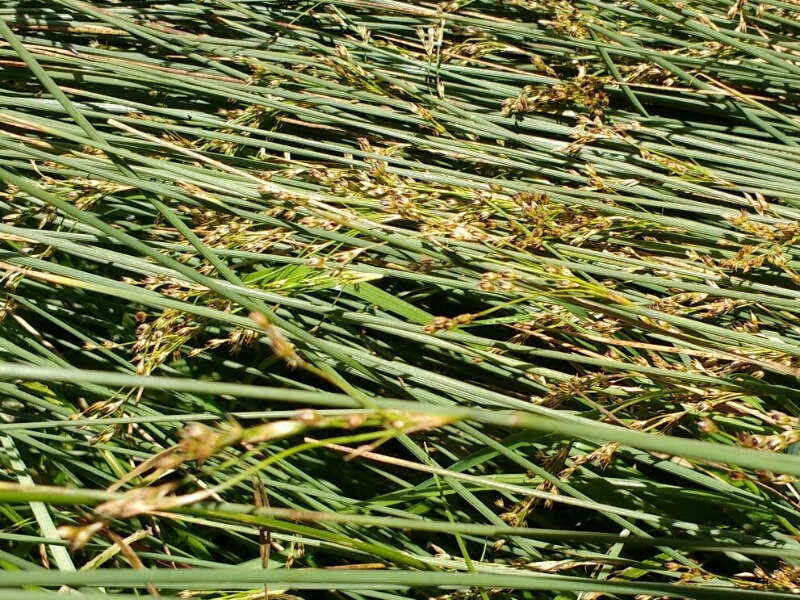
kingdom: Plantae
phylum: Tracheophyta
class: Liliopsida
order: Poales
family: Juncaceae
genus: Juncus
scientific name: Juncus inflexus
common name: Hard rush
